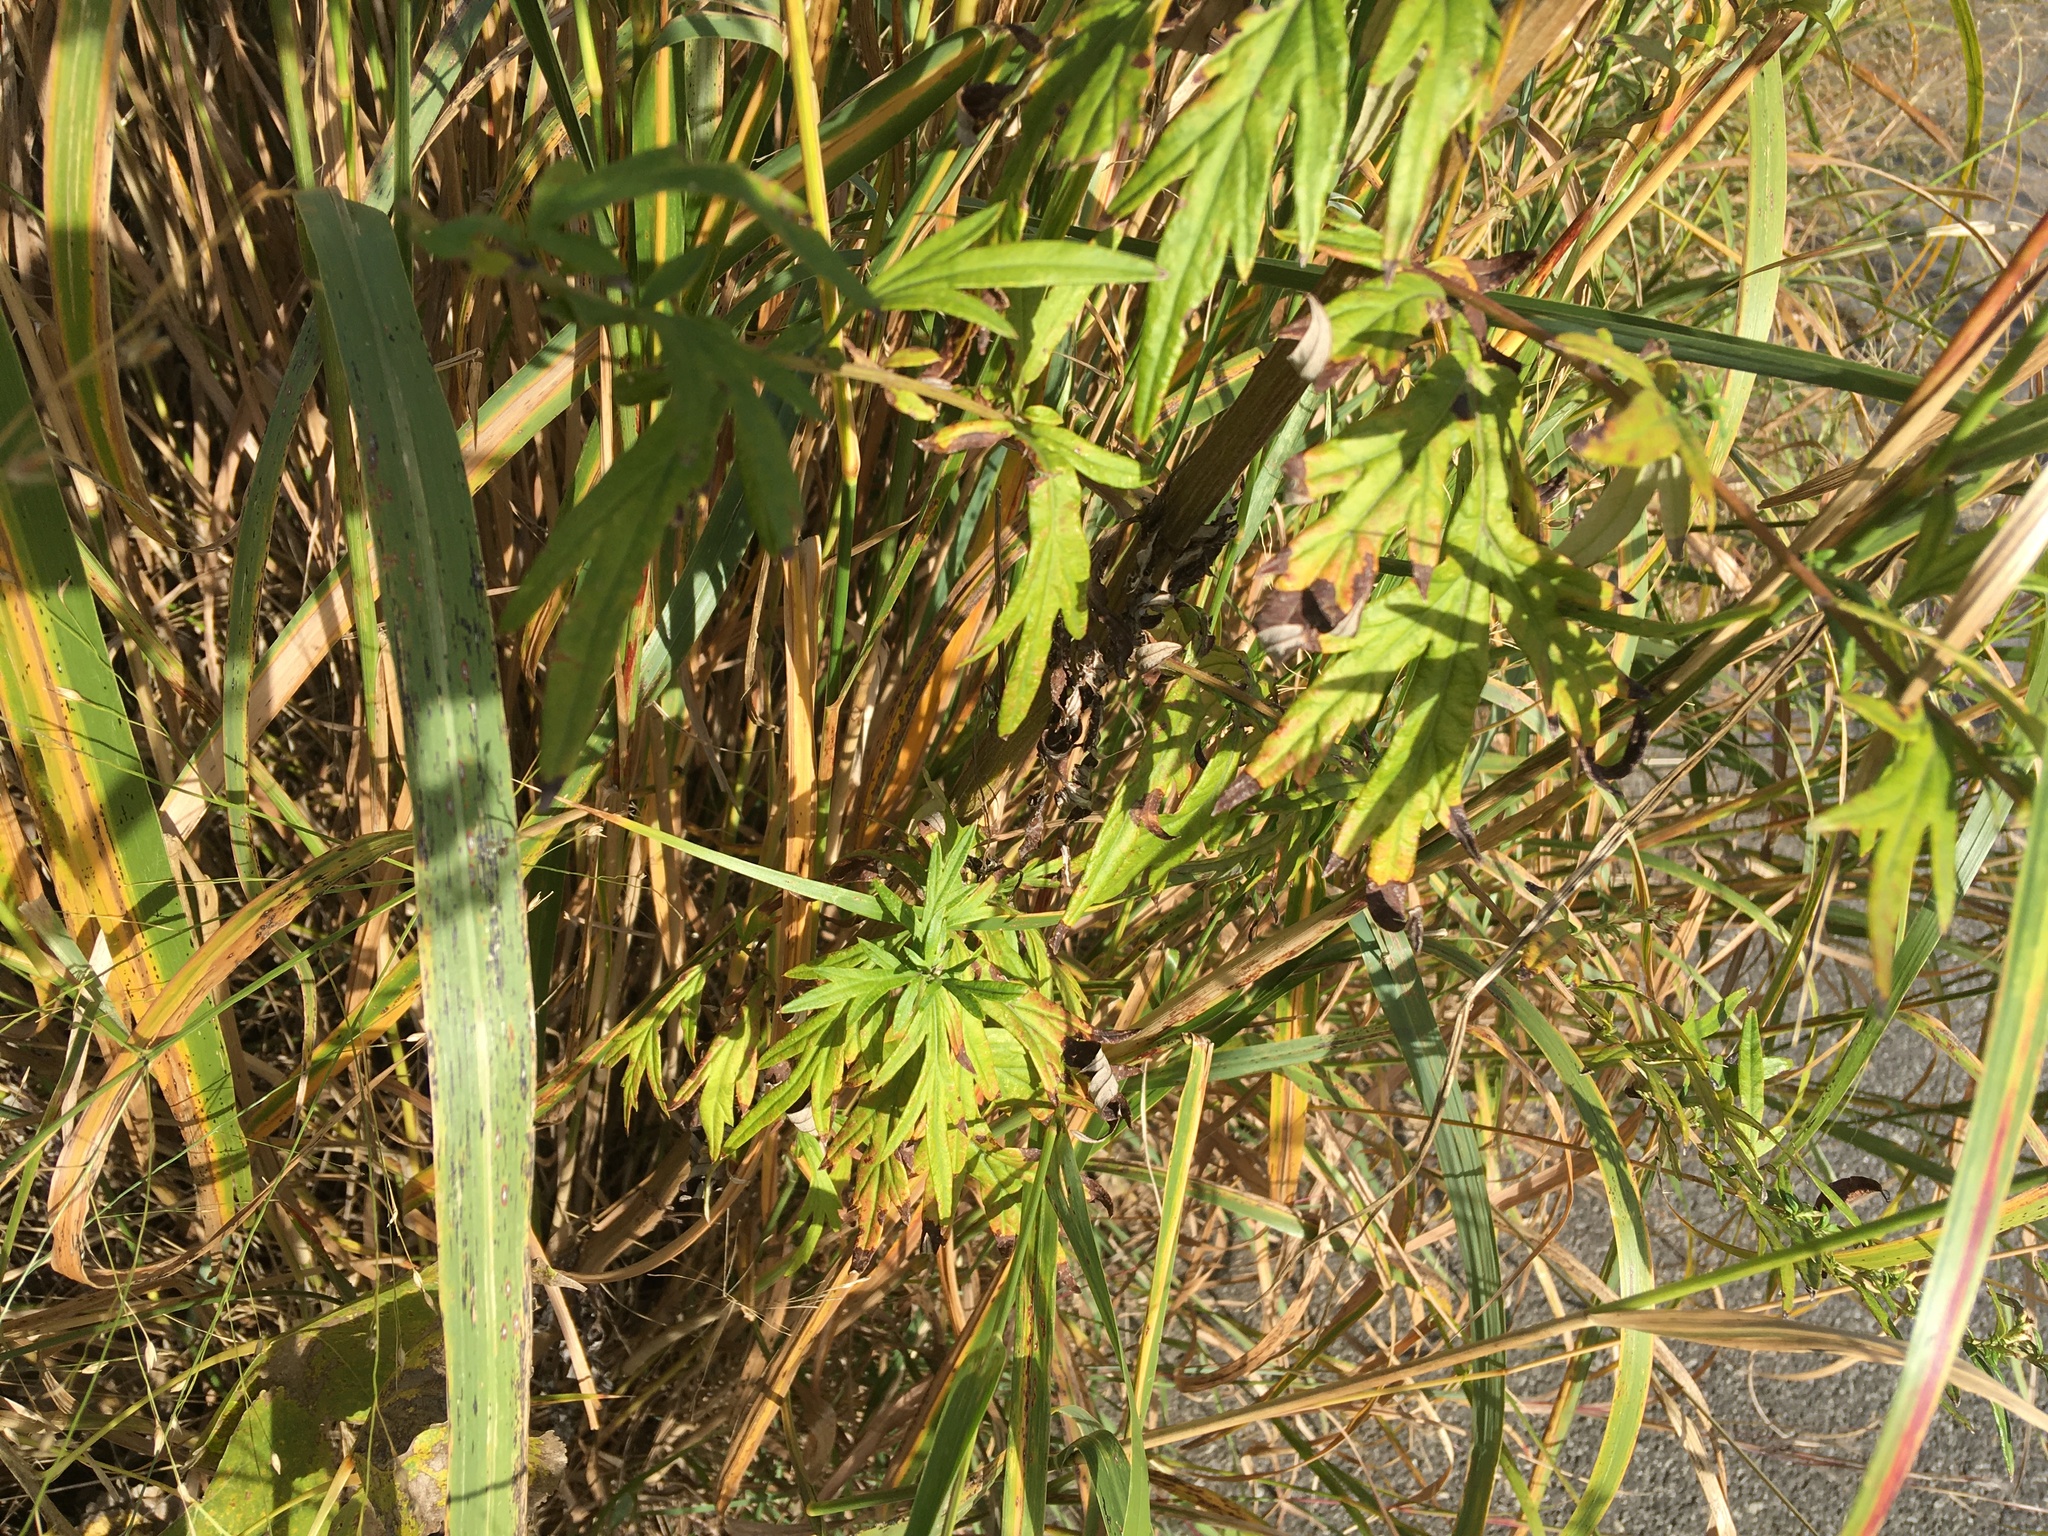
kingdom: Plantae
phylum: Tracheophyta
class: Magnoliopsida
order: Asterales
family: Asteraceae
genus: Artemisia
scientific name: Artemisia vulgaris
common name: Mugwort
